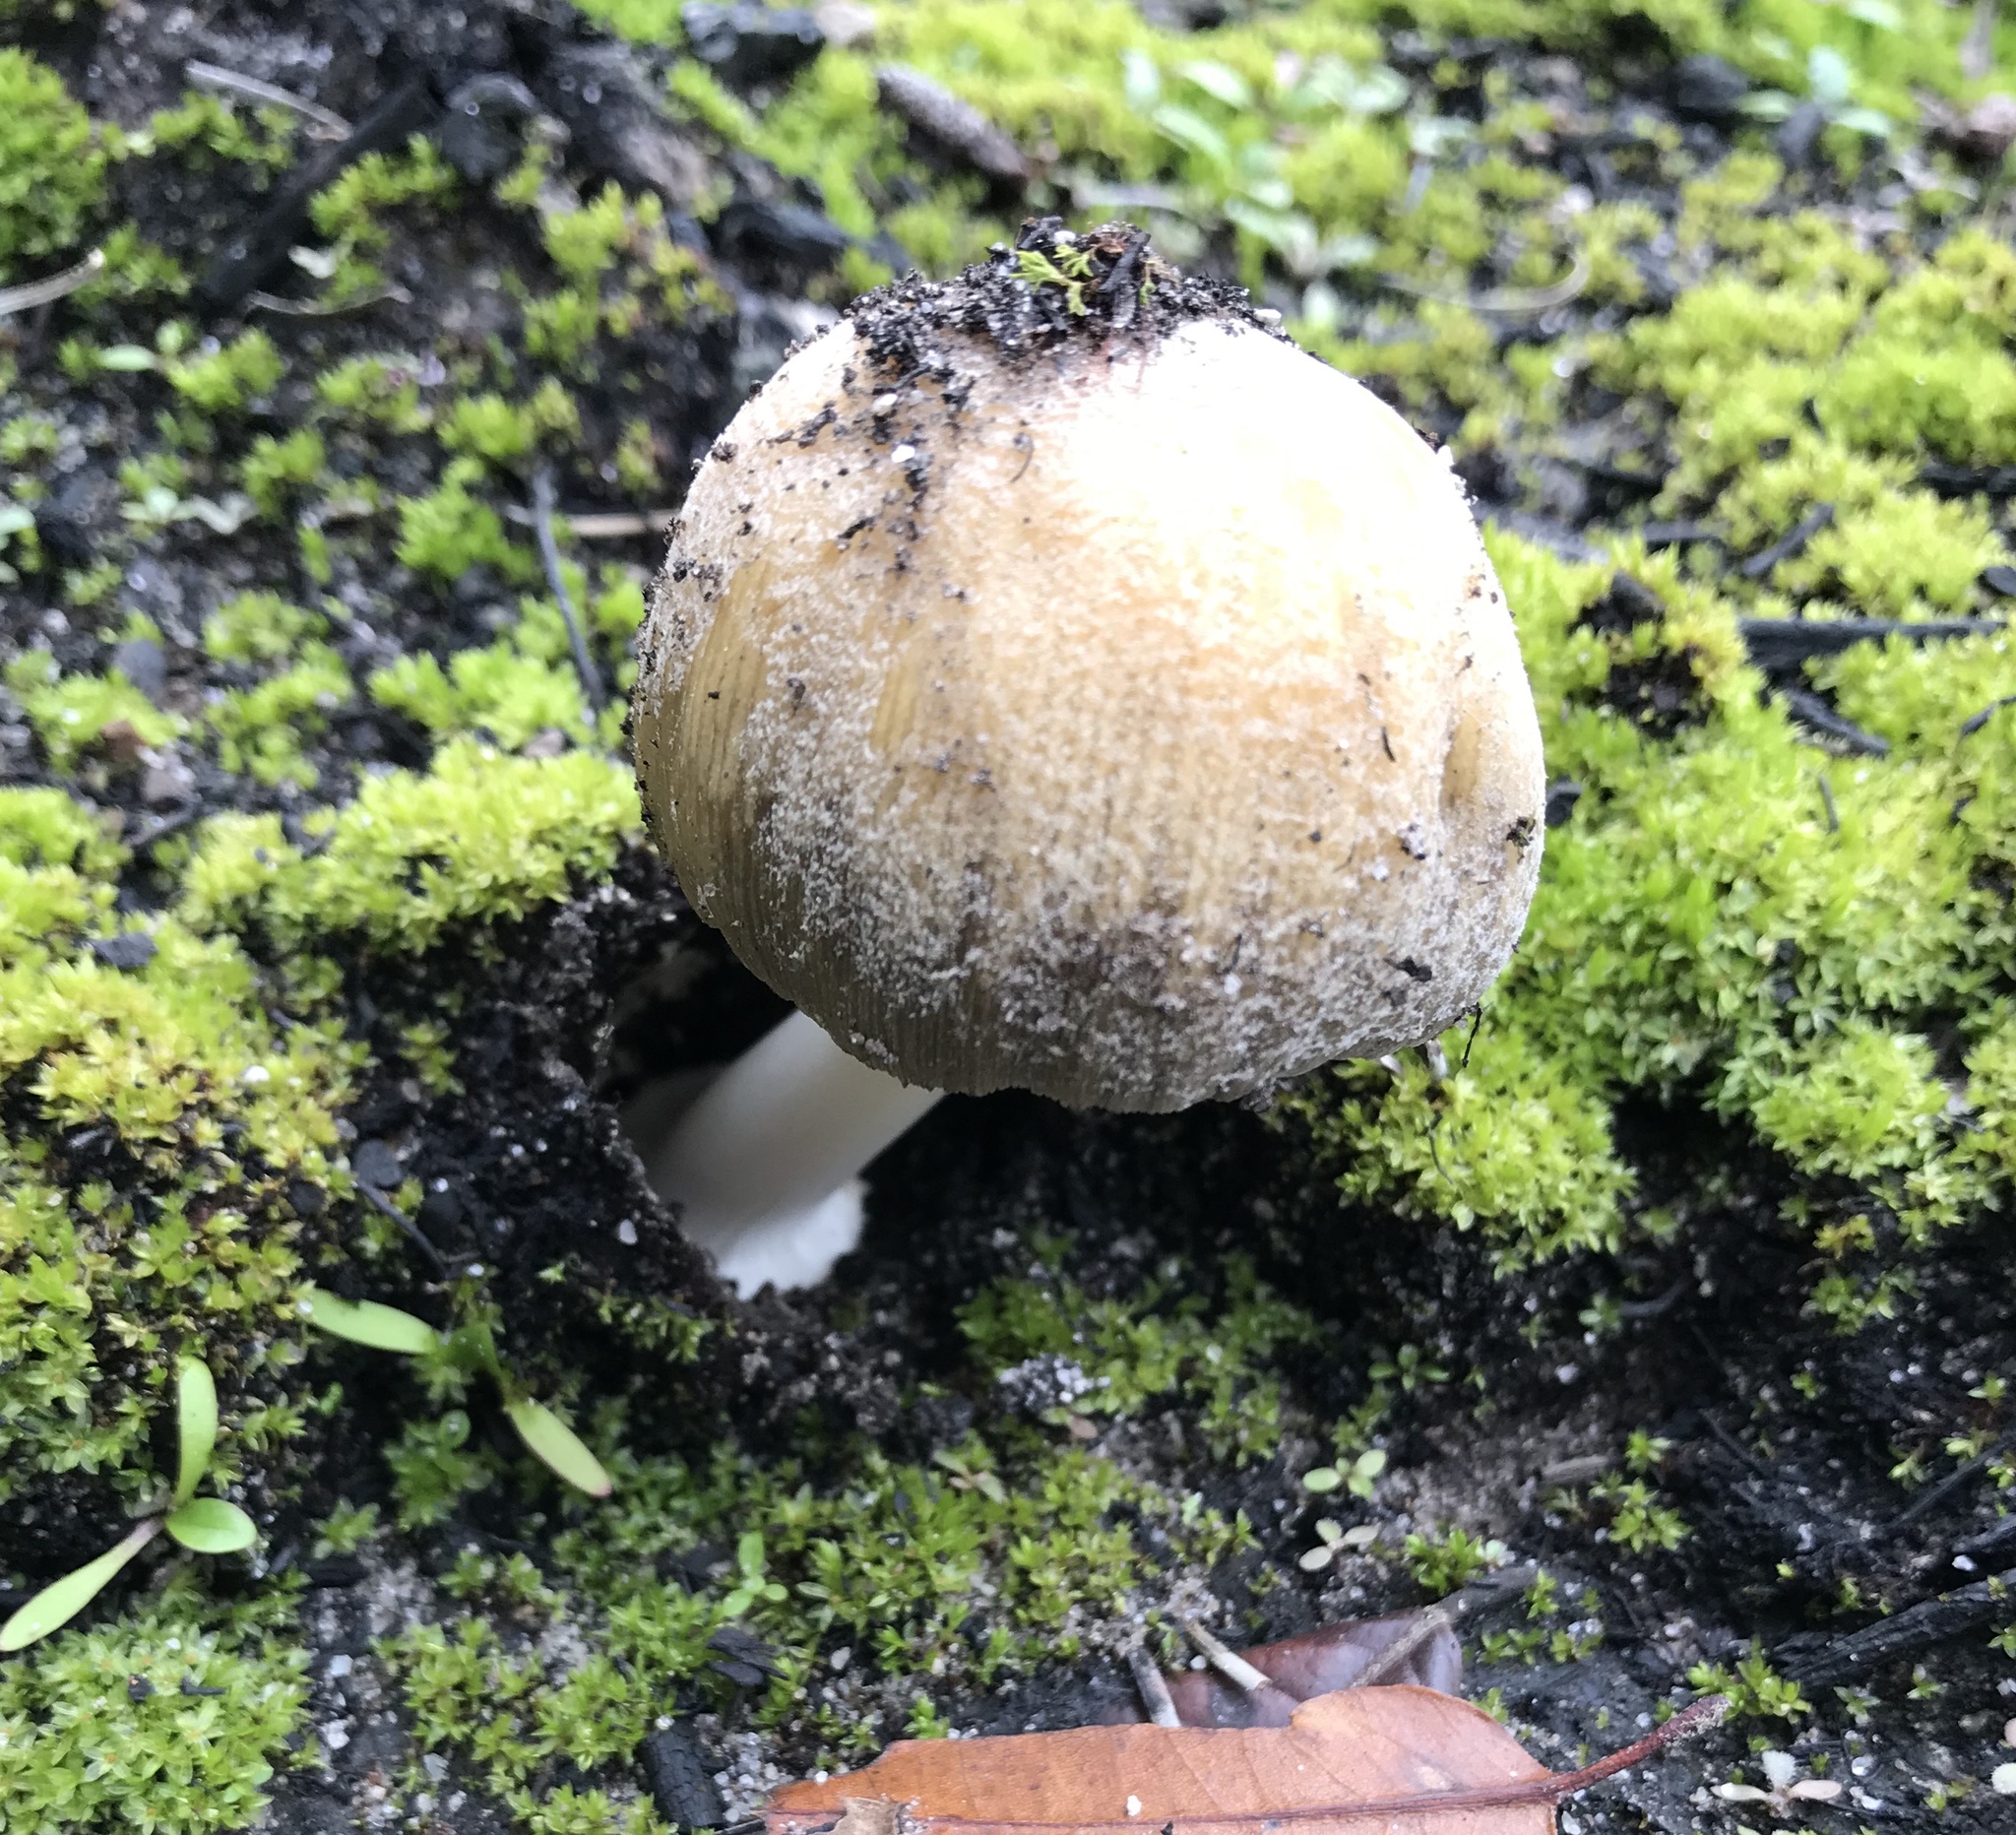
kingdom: Fungi
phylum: Basidiomycota
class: Agaricomycetes
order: Agaricales
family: Psathyrellaceae
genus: Coprinellus
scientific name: Coprinellus micaceus
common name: Glistening ink-cap
